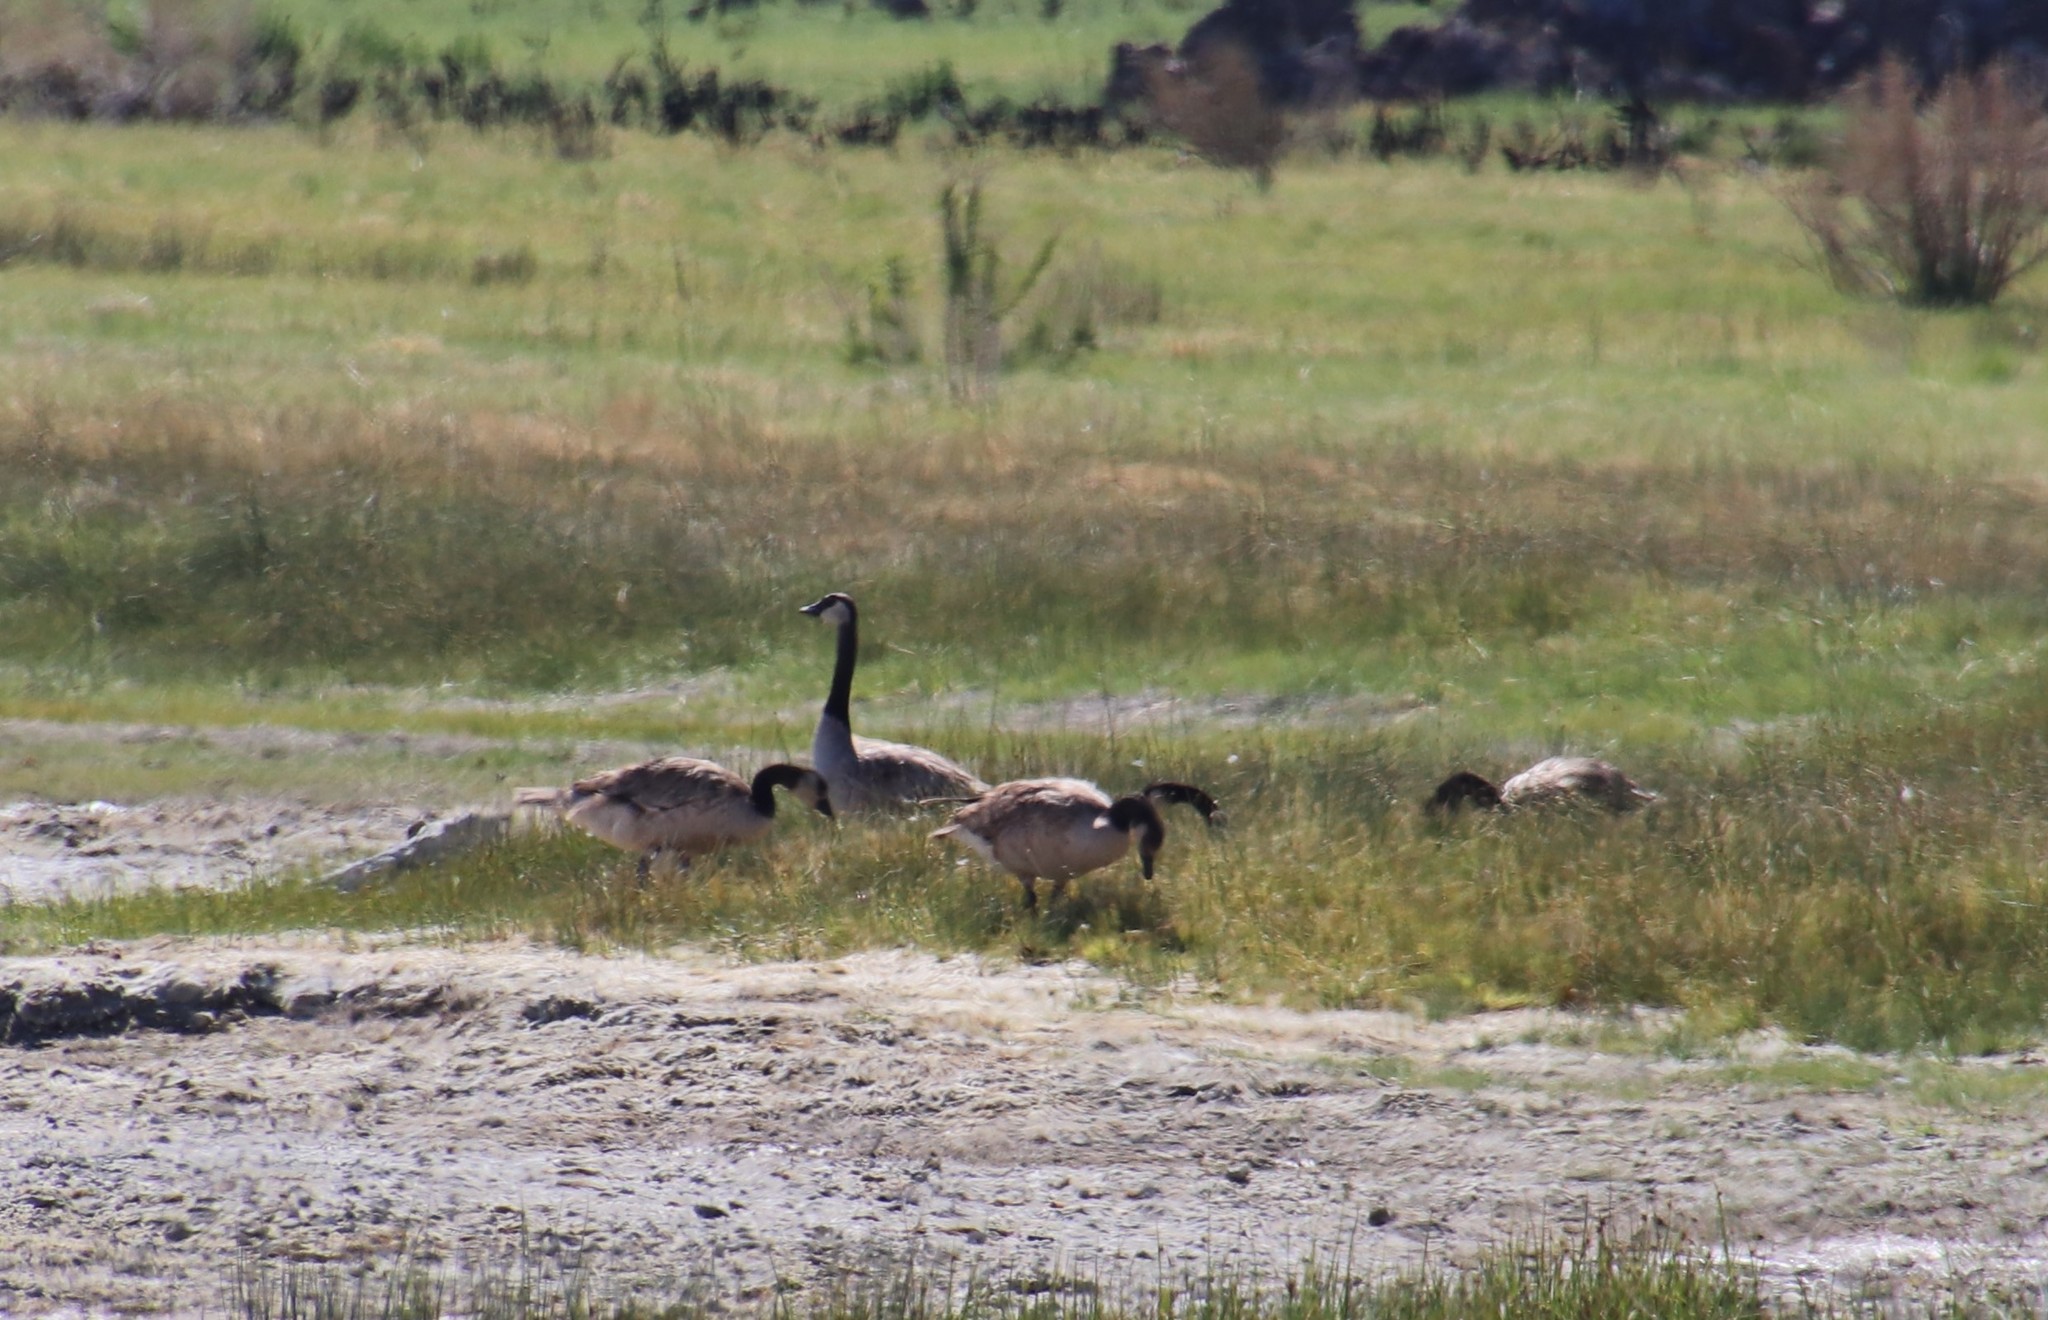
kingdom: Animalia
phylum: Chordata
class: Aves
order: Anseriformes
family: Anatidae
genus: Branta
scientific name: Branta canadensis
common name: Canada goose
